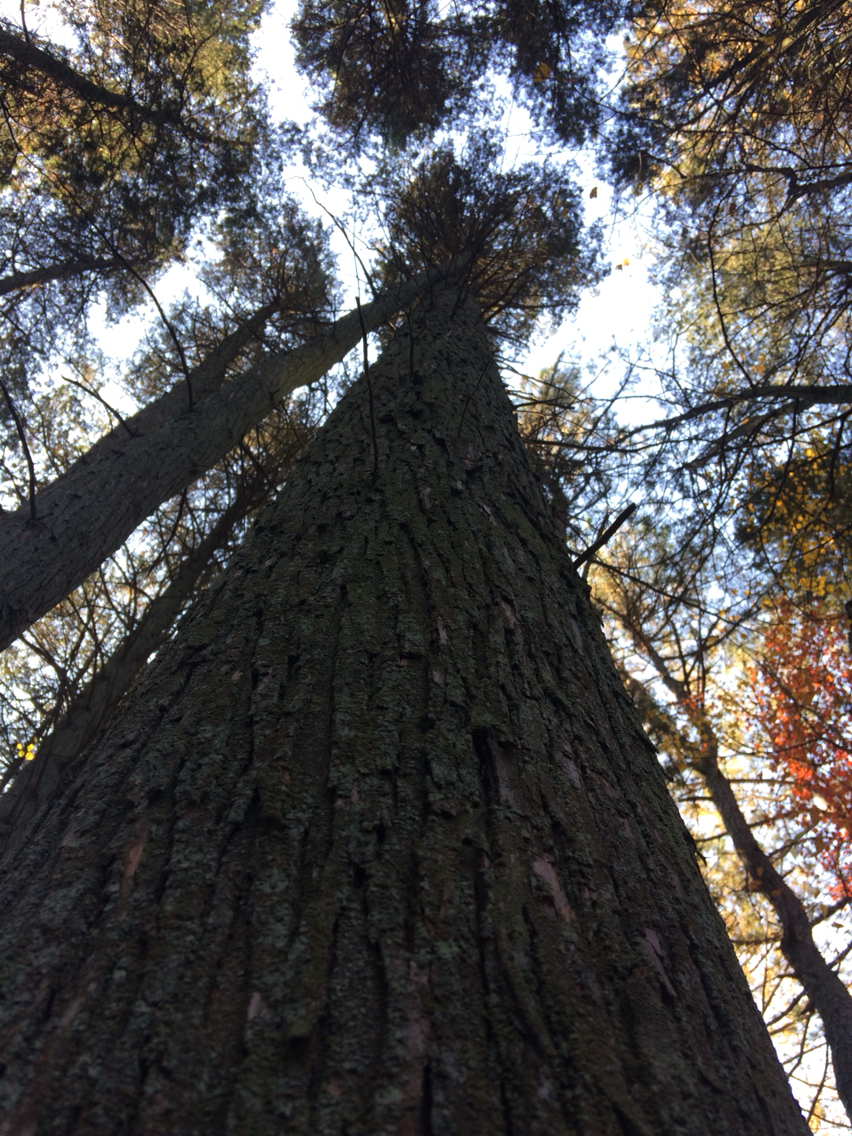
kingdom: Plantae
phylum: Tracheophyta
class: Pinopsida
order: Pinales
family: Cupressaceae
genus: Chamaecyparis
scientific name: Chamaecyparis thyoides
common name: Atlantic white cedar
